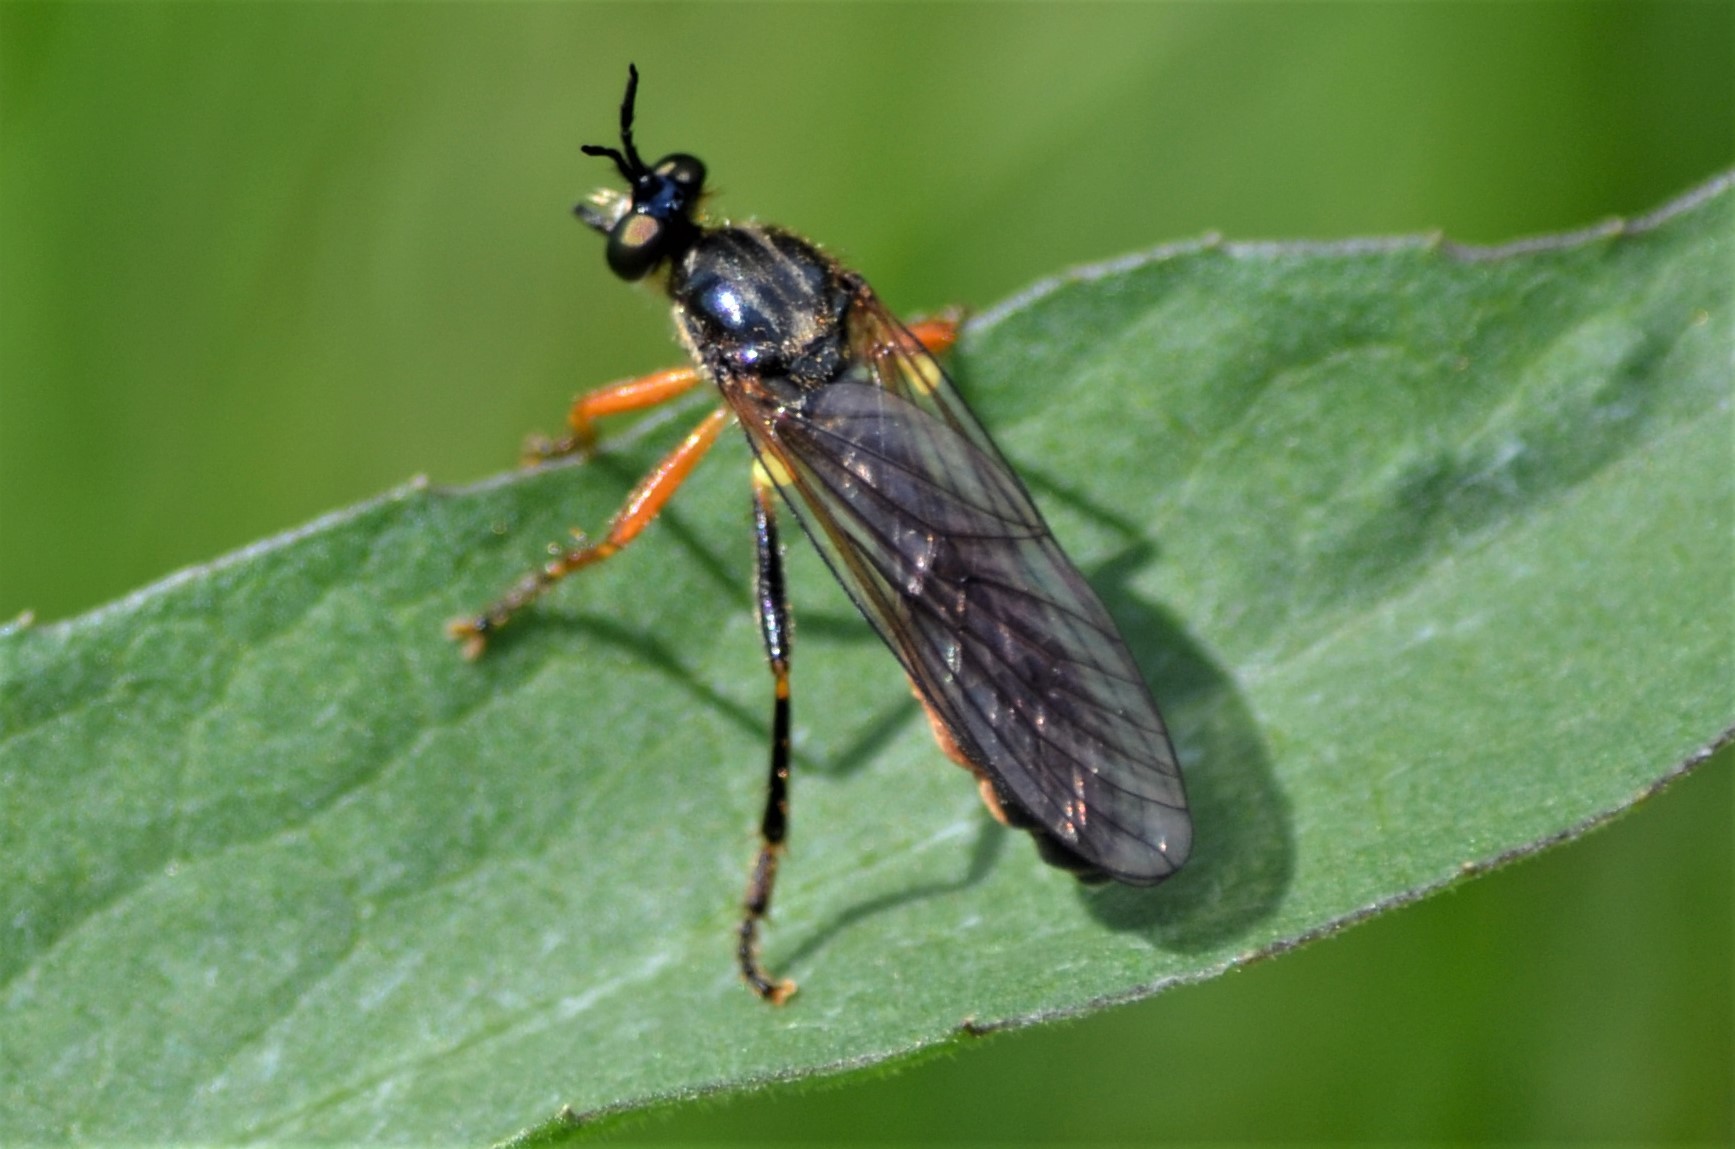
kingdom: Animalia
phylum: Arthropoda
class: Insecta
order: Diptera
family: Asilidae
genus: Dioctria
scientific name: Dioctria rufipes
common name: Common red-legged robberfly
